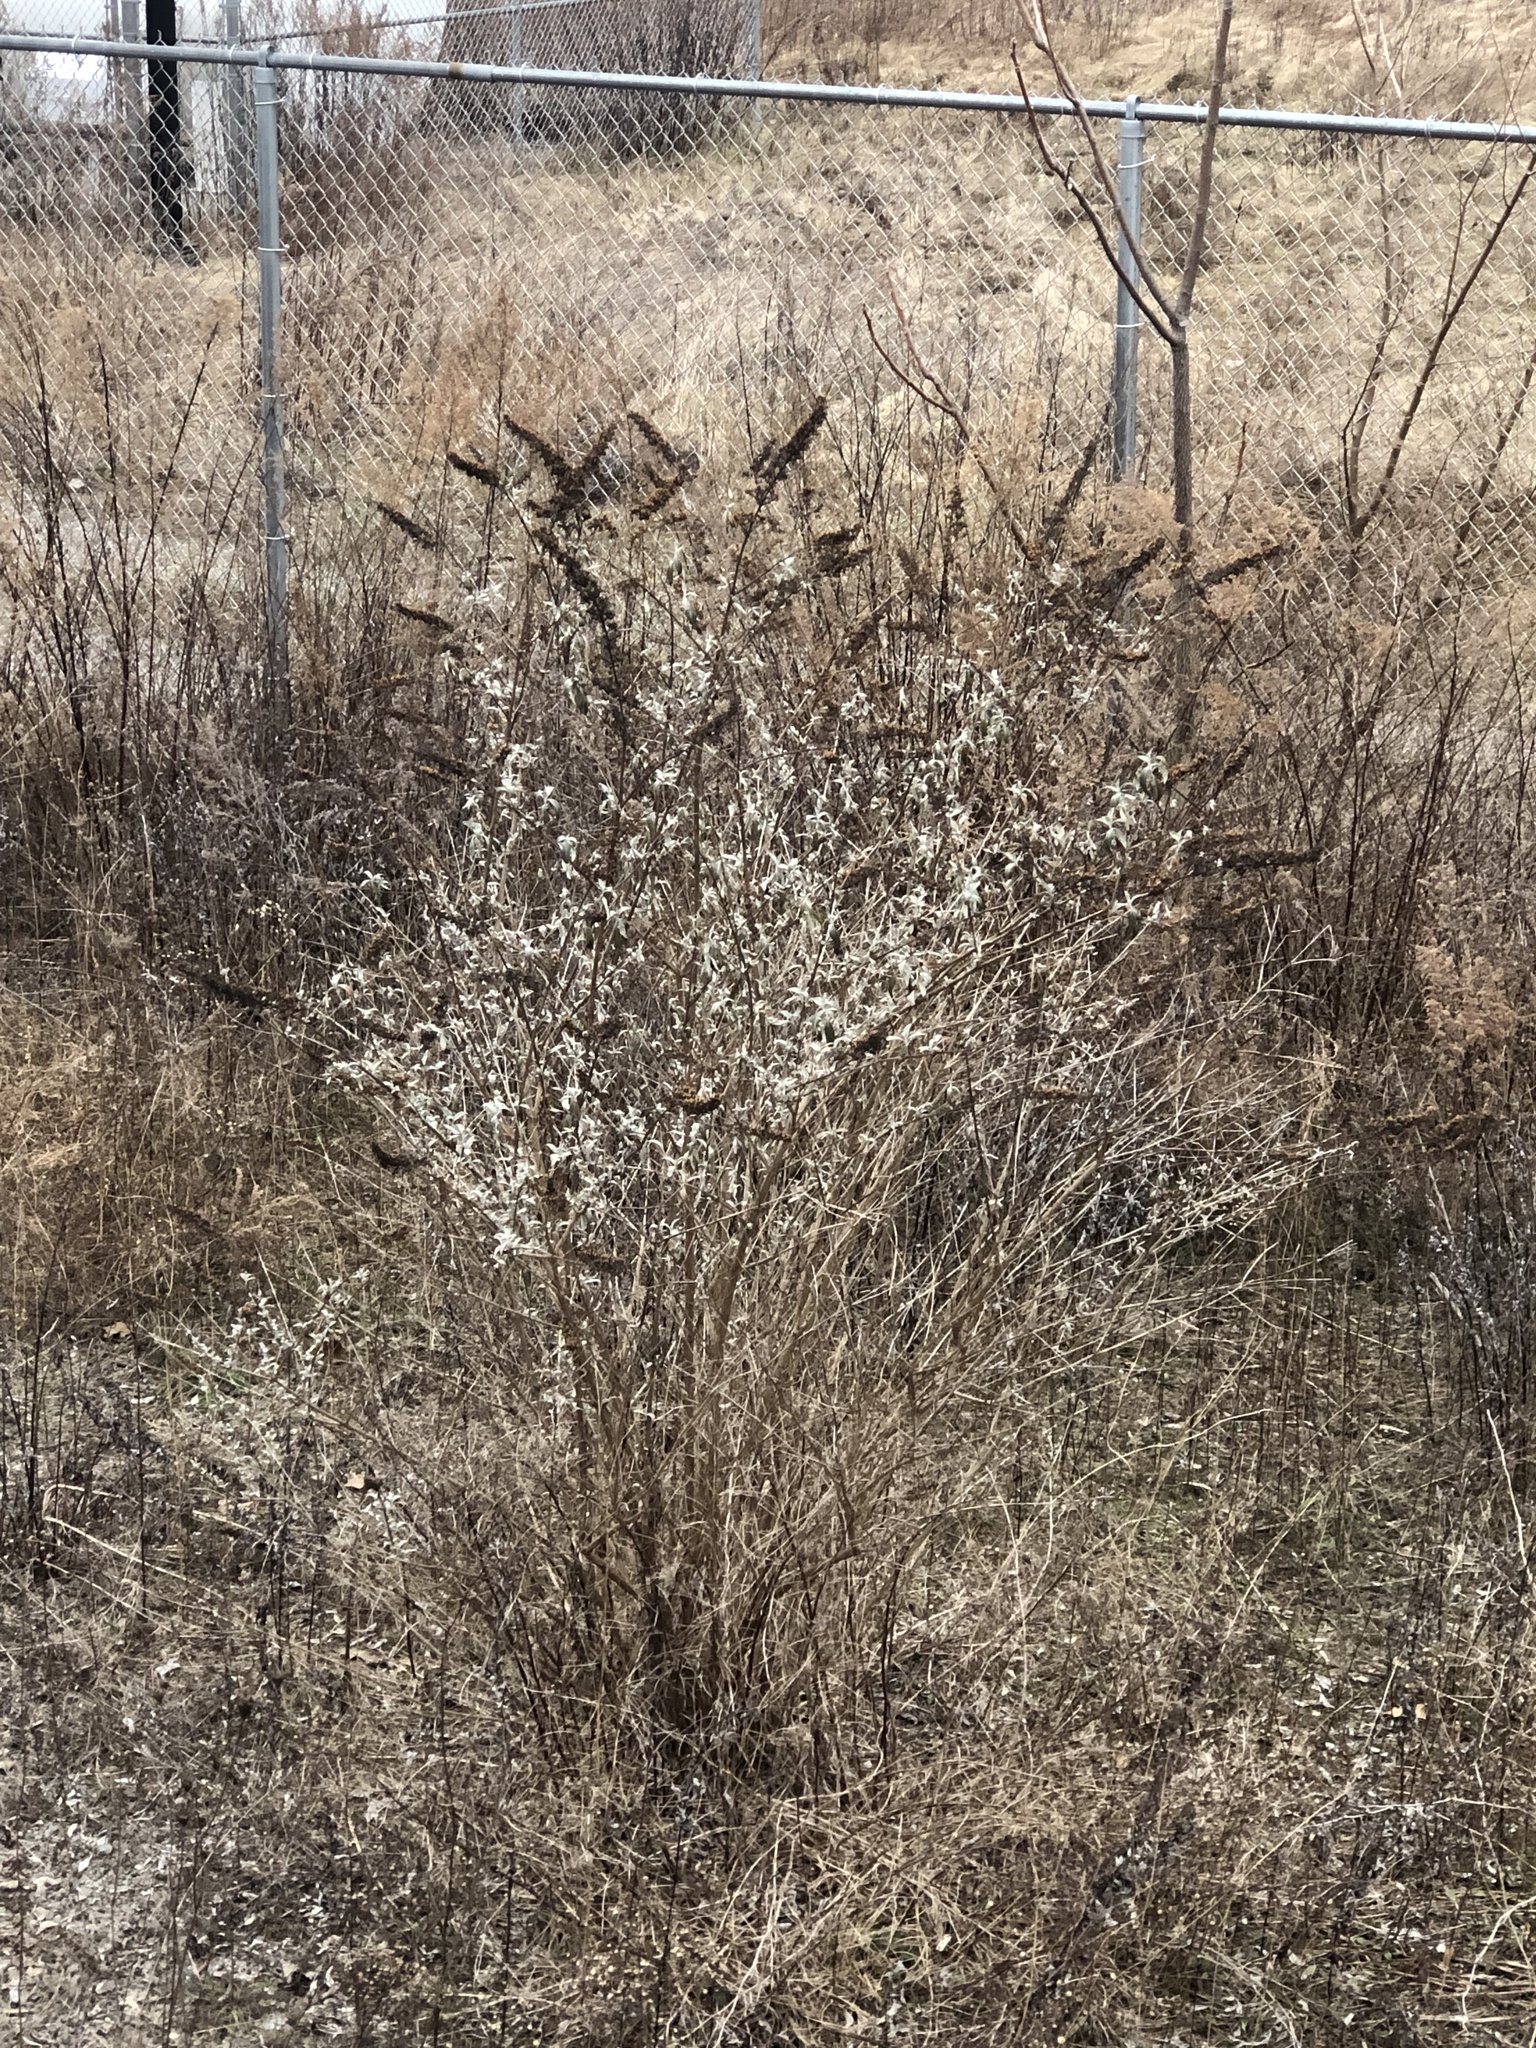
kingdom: Plantae
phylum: Tracheophyta
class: Magnoliopsida
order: Lamiales
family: Scrophulariaceae
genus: Buddleja
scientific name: Buddleja davidii
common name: Butterfly-bush
